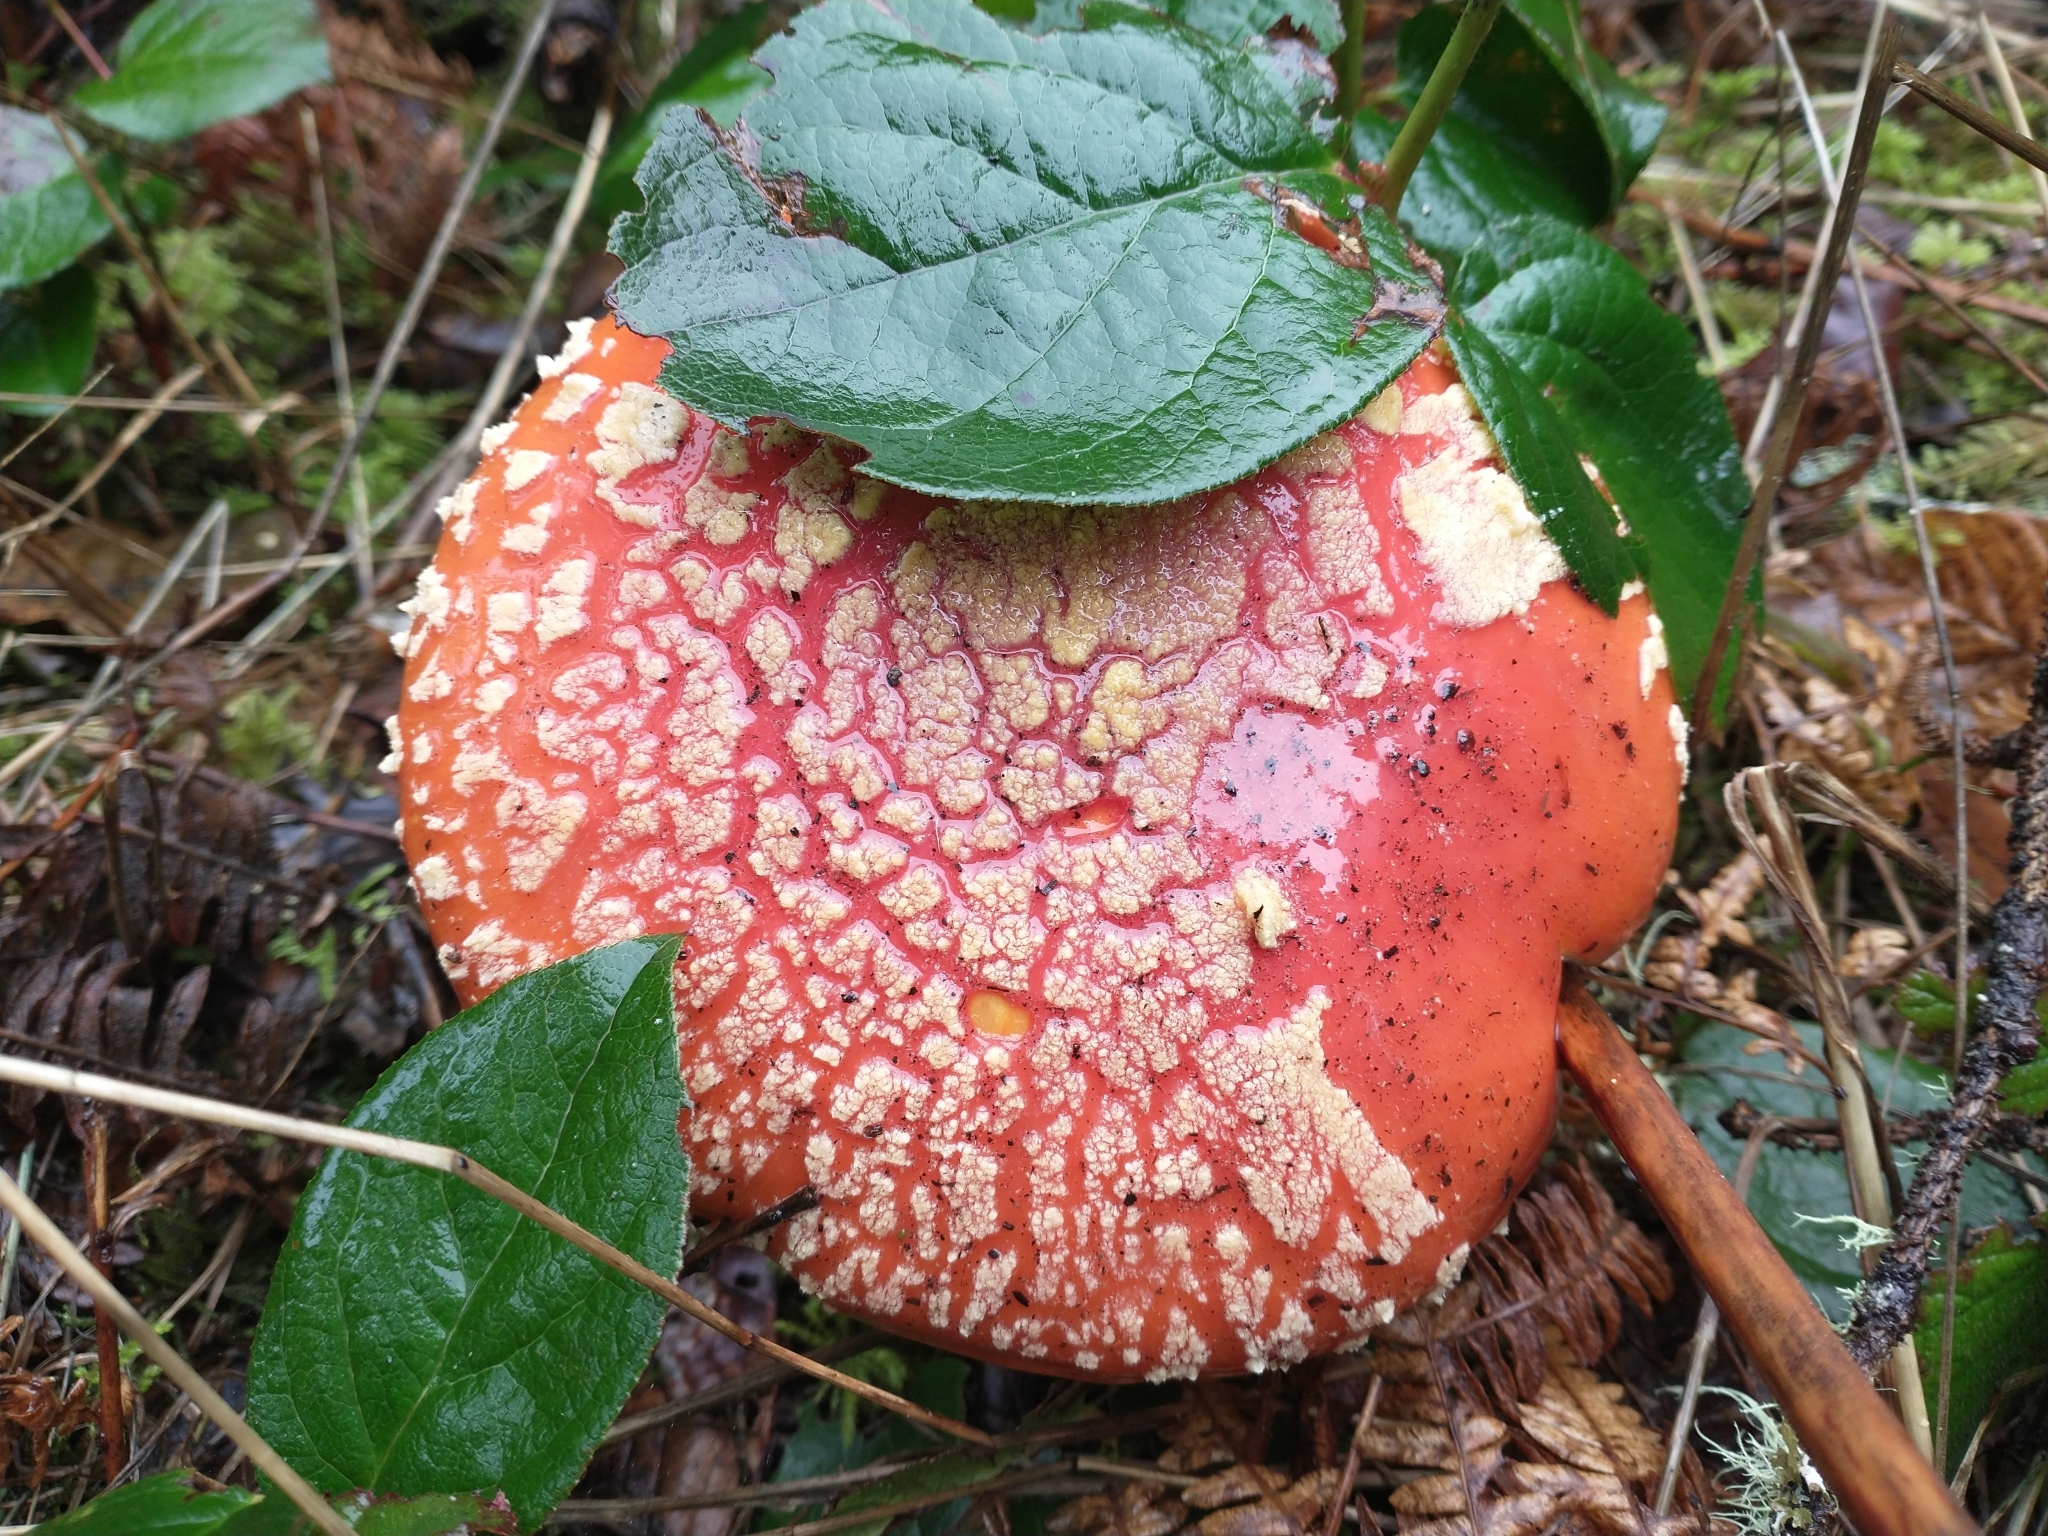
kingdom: Fungi
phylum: Basidiomycota
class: Agaricomycetes
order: Agaricales
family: Amanitaceae
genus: Amanita
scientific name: Amanita muscaria
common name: Fly agaric
